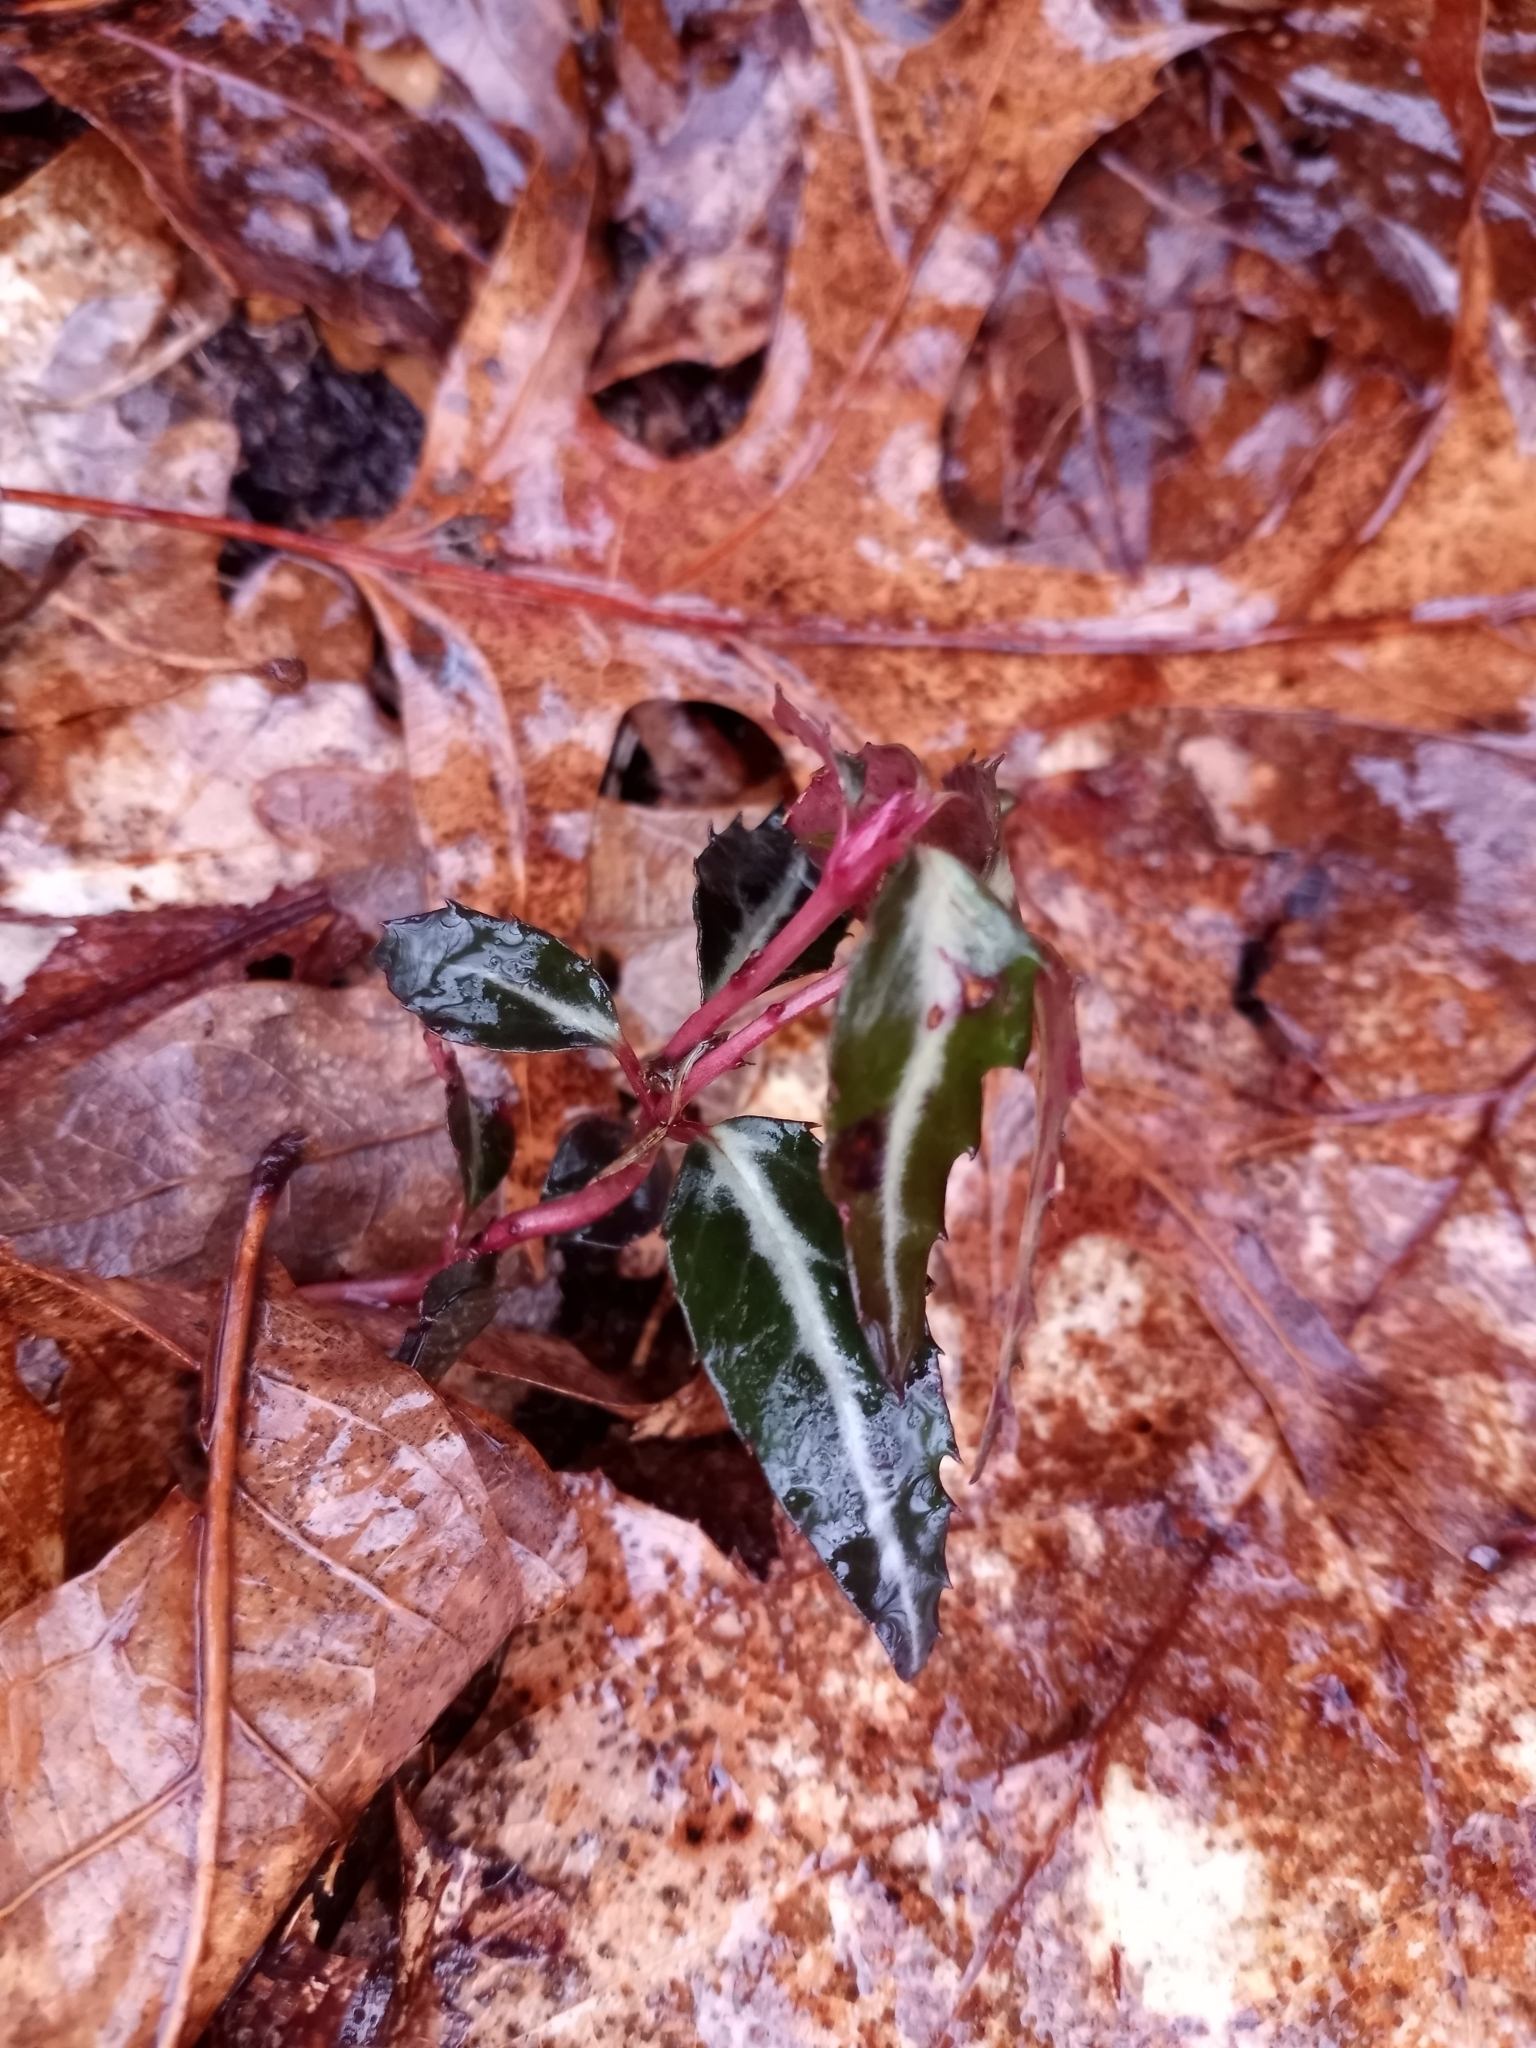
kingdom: Plantae
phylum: Tracheophyta
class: Magnoliopsida
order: Ericales
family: Ericaceae
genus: Chimaphila
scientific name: Chimaphila maculata
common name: Spotted pipsissewa
